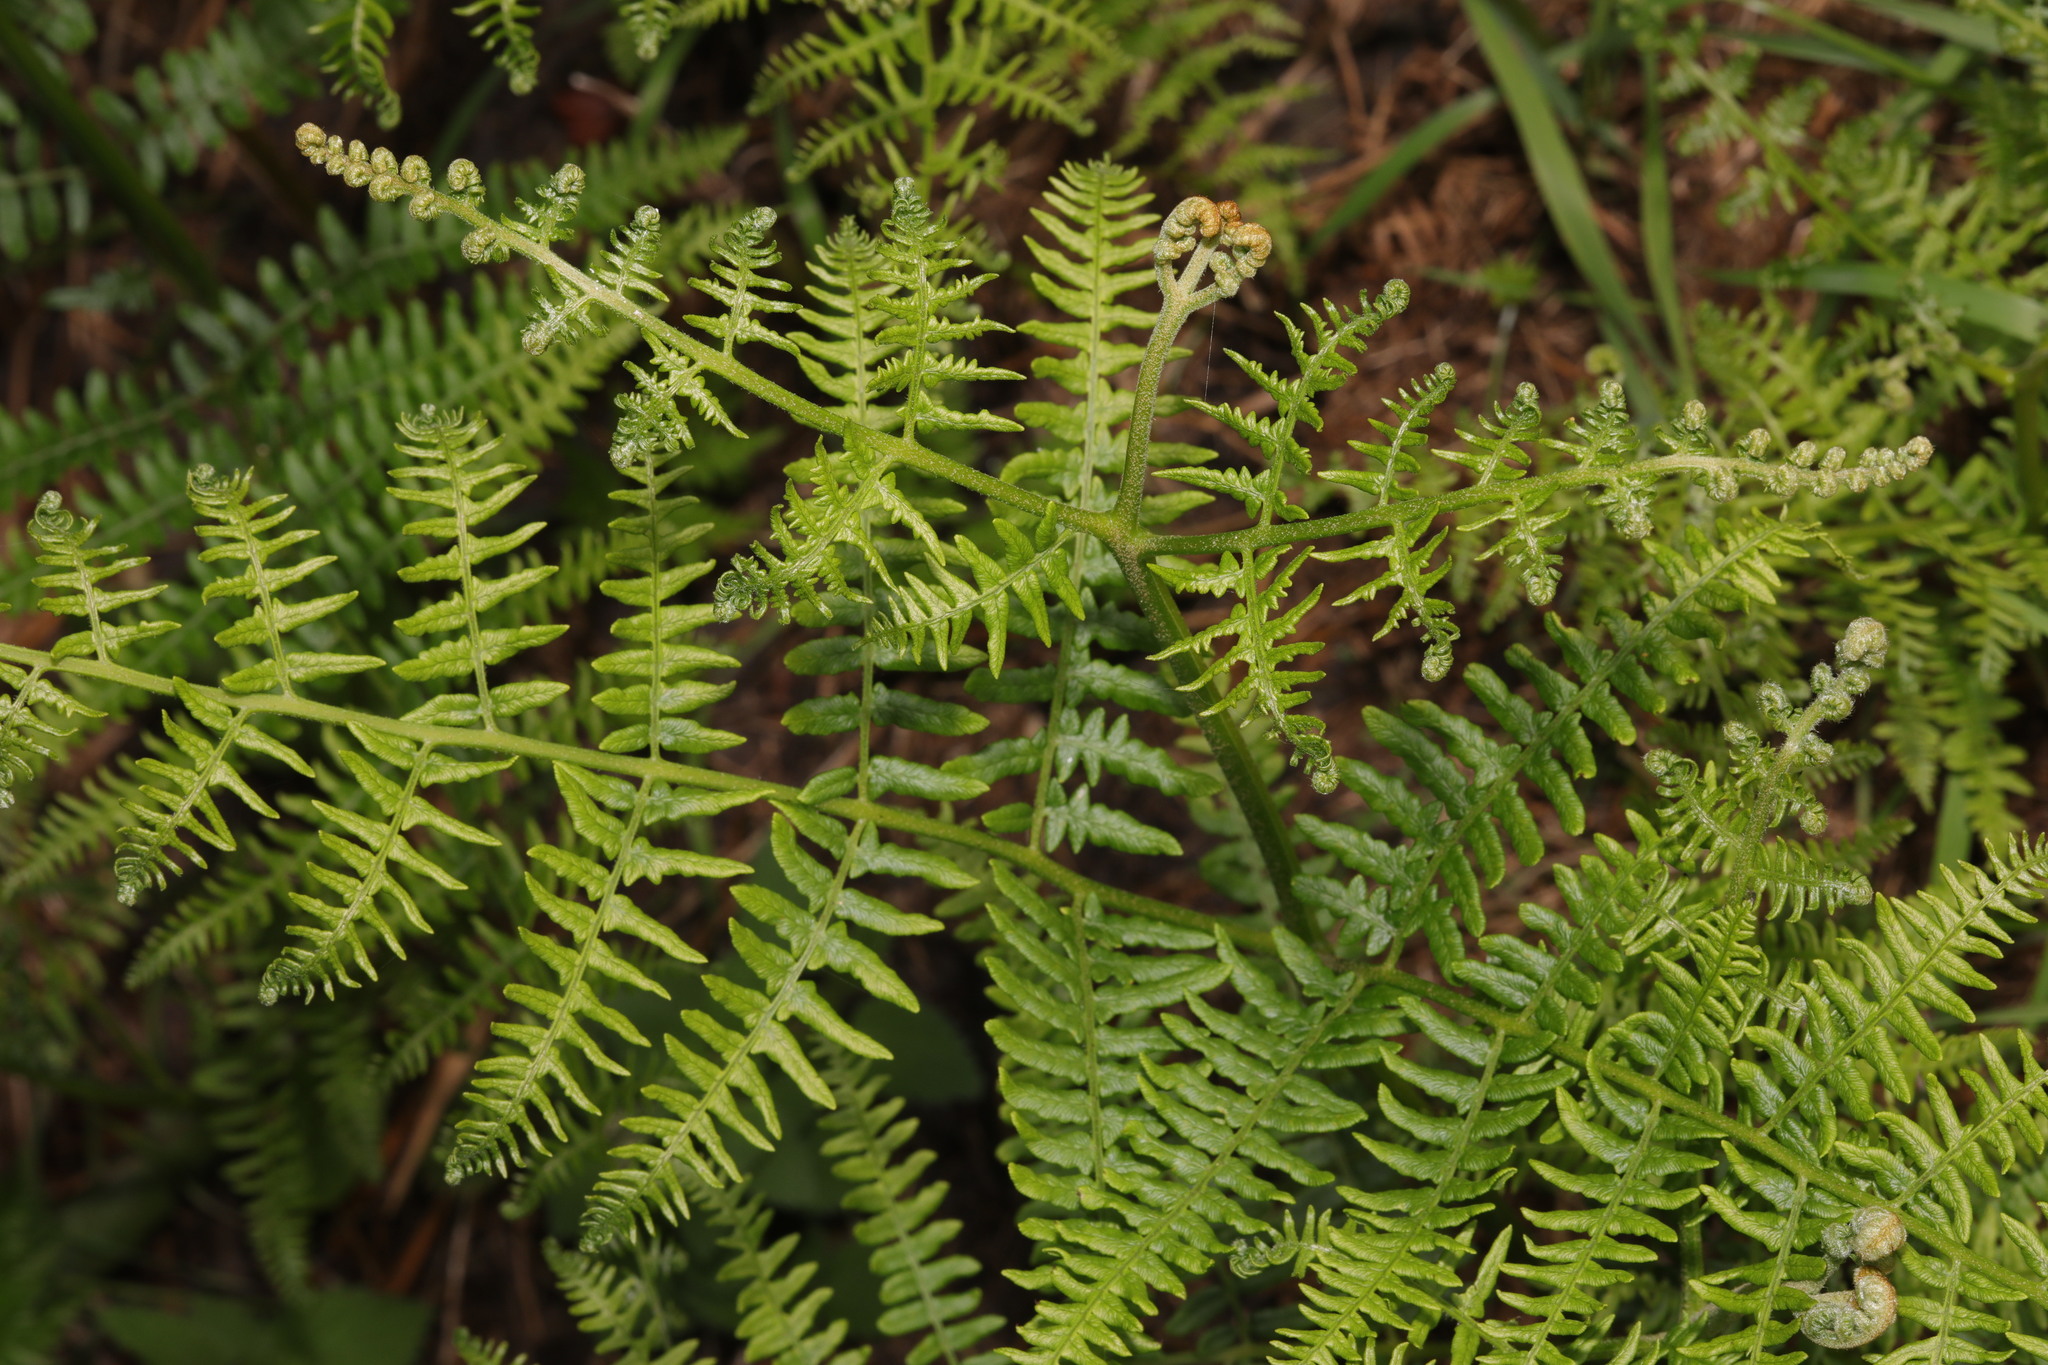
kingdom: Plantae
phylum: Tracheophyta
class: Polypodiopsida
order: Polypodiales
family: Dennstaedtiaceae
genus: Pteridium
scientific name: Pteridium aquilinum
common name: Bracken
